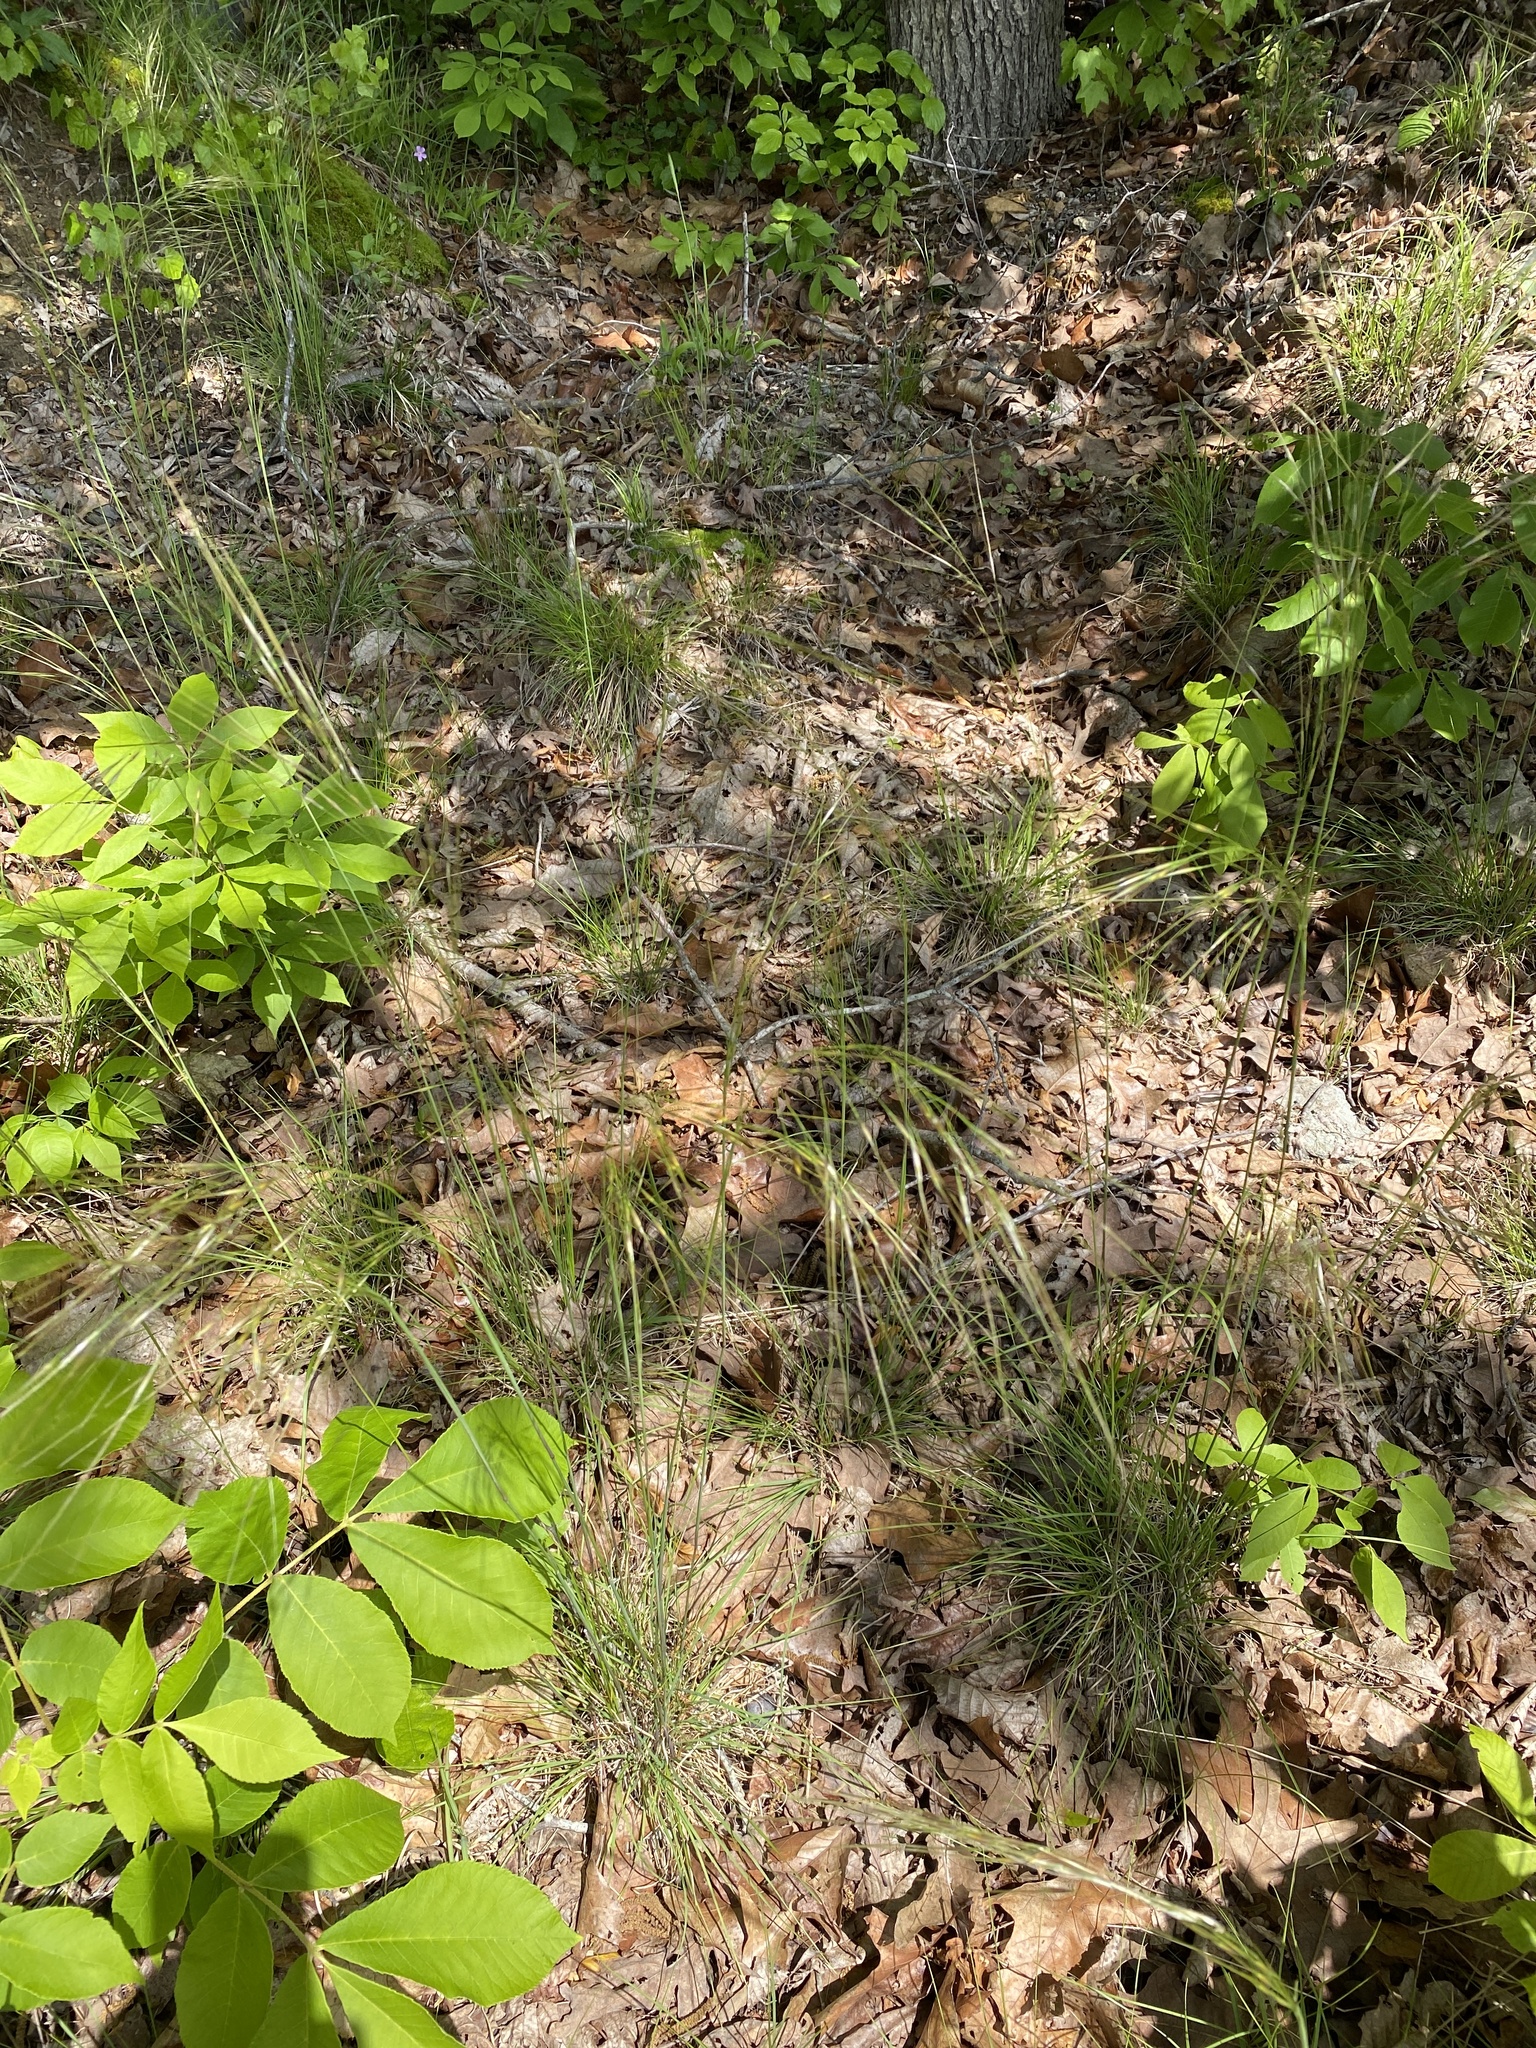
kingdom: Plantae
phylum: Tracheophyta
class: Liliopsida
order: Poales
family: Poaceae
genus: Piptochaetium
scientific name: Piptochaetium avenaceum
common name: Black bunchgrass
